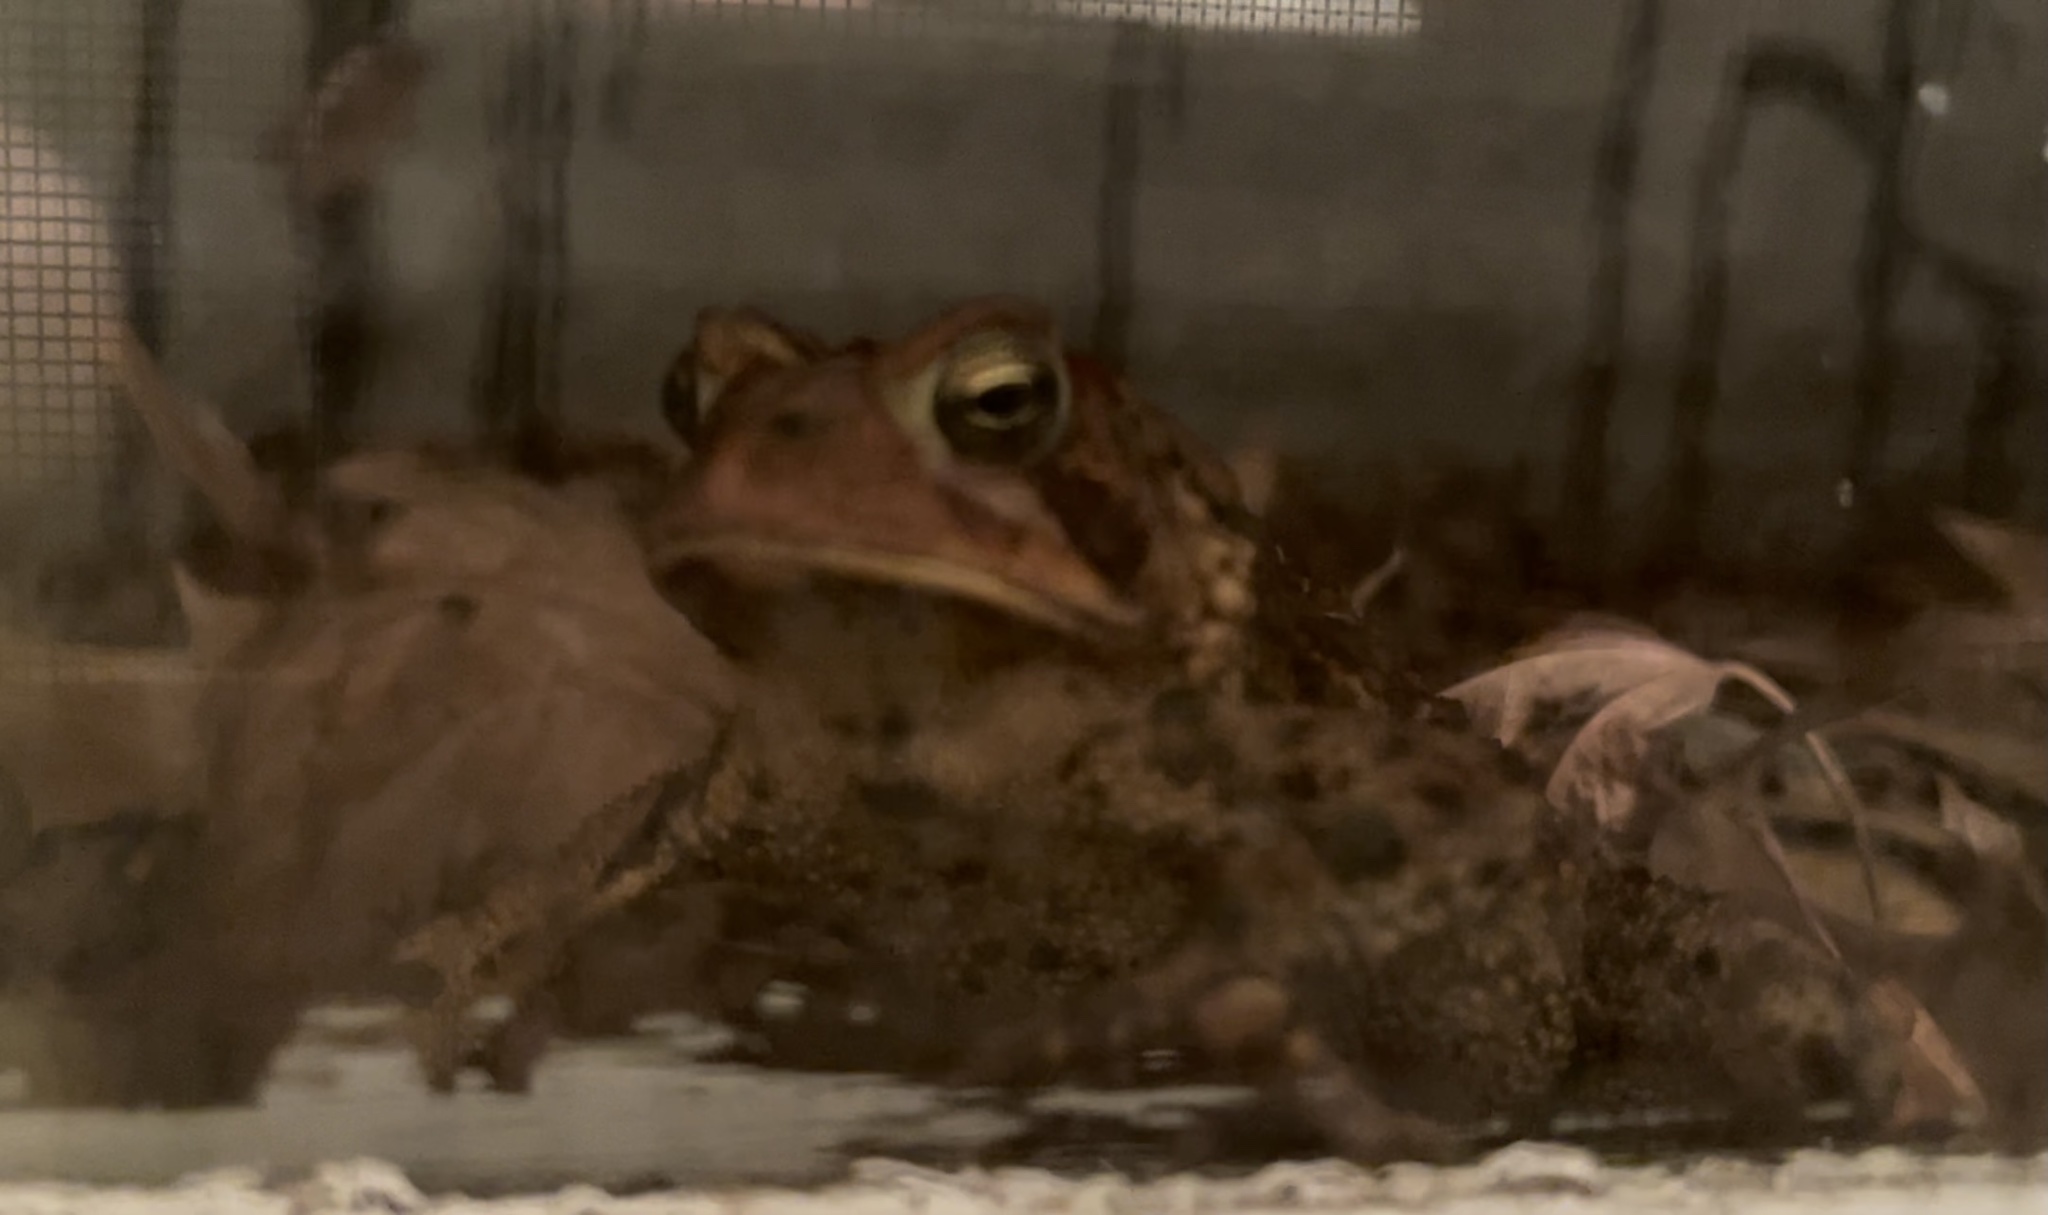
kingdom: Animalia
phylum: Chordata
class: Amphibia
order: Anura
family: Bufonidae
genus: Anaxyrus
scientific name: Anaxyrus americanus
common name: American toad
